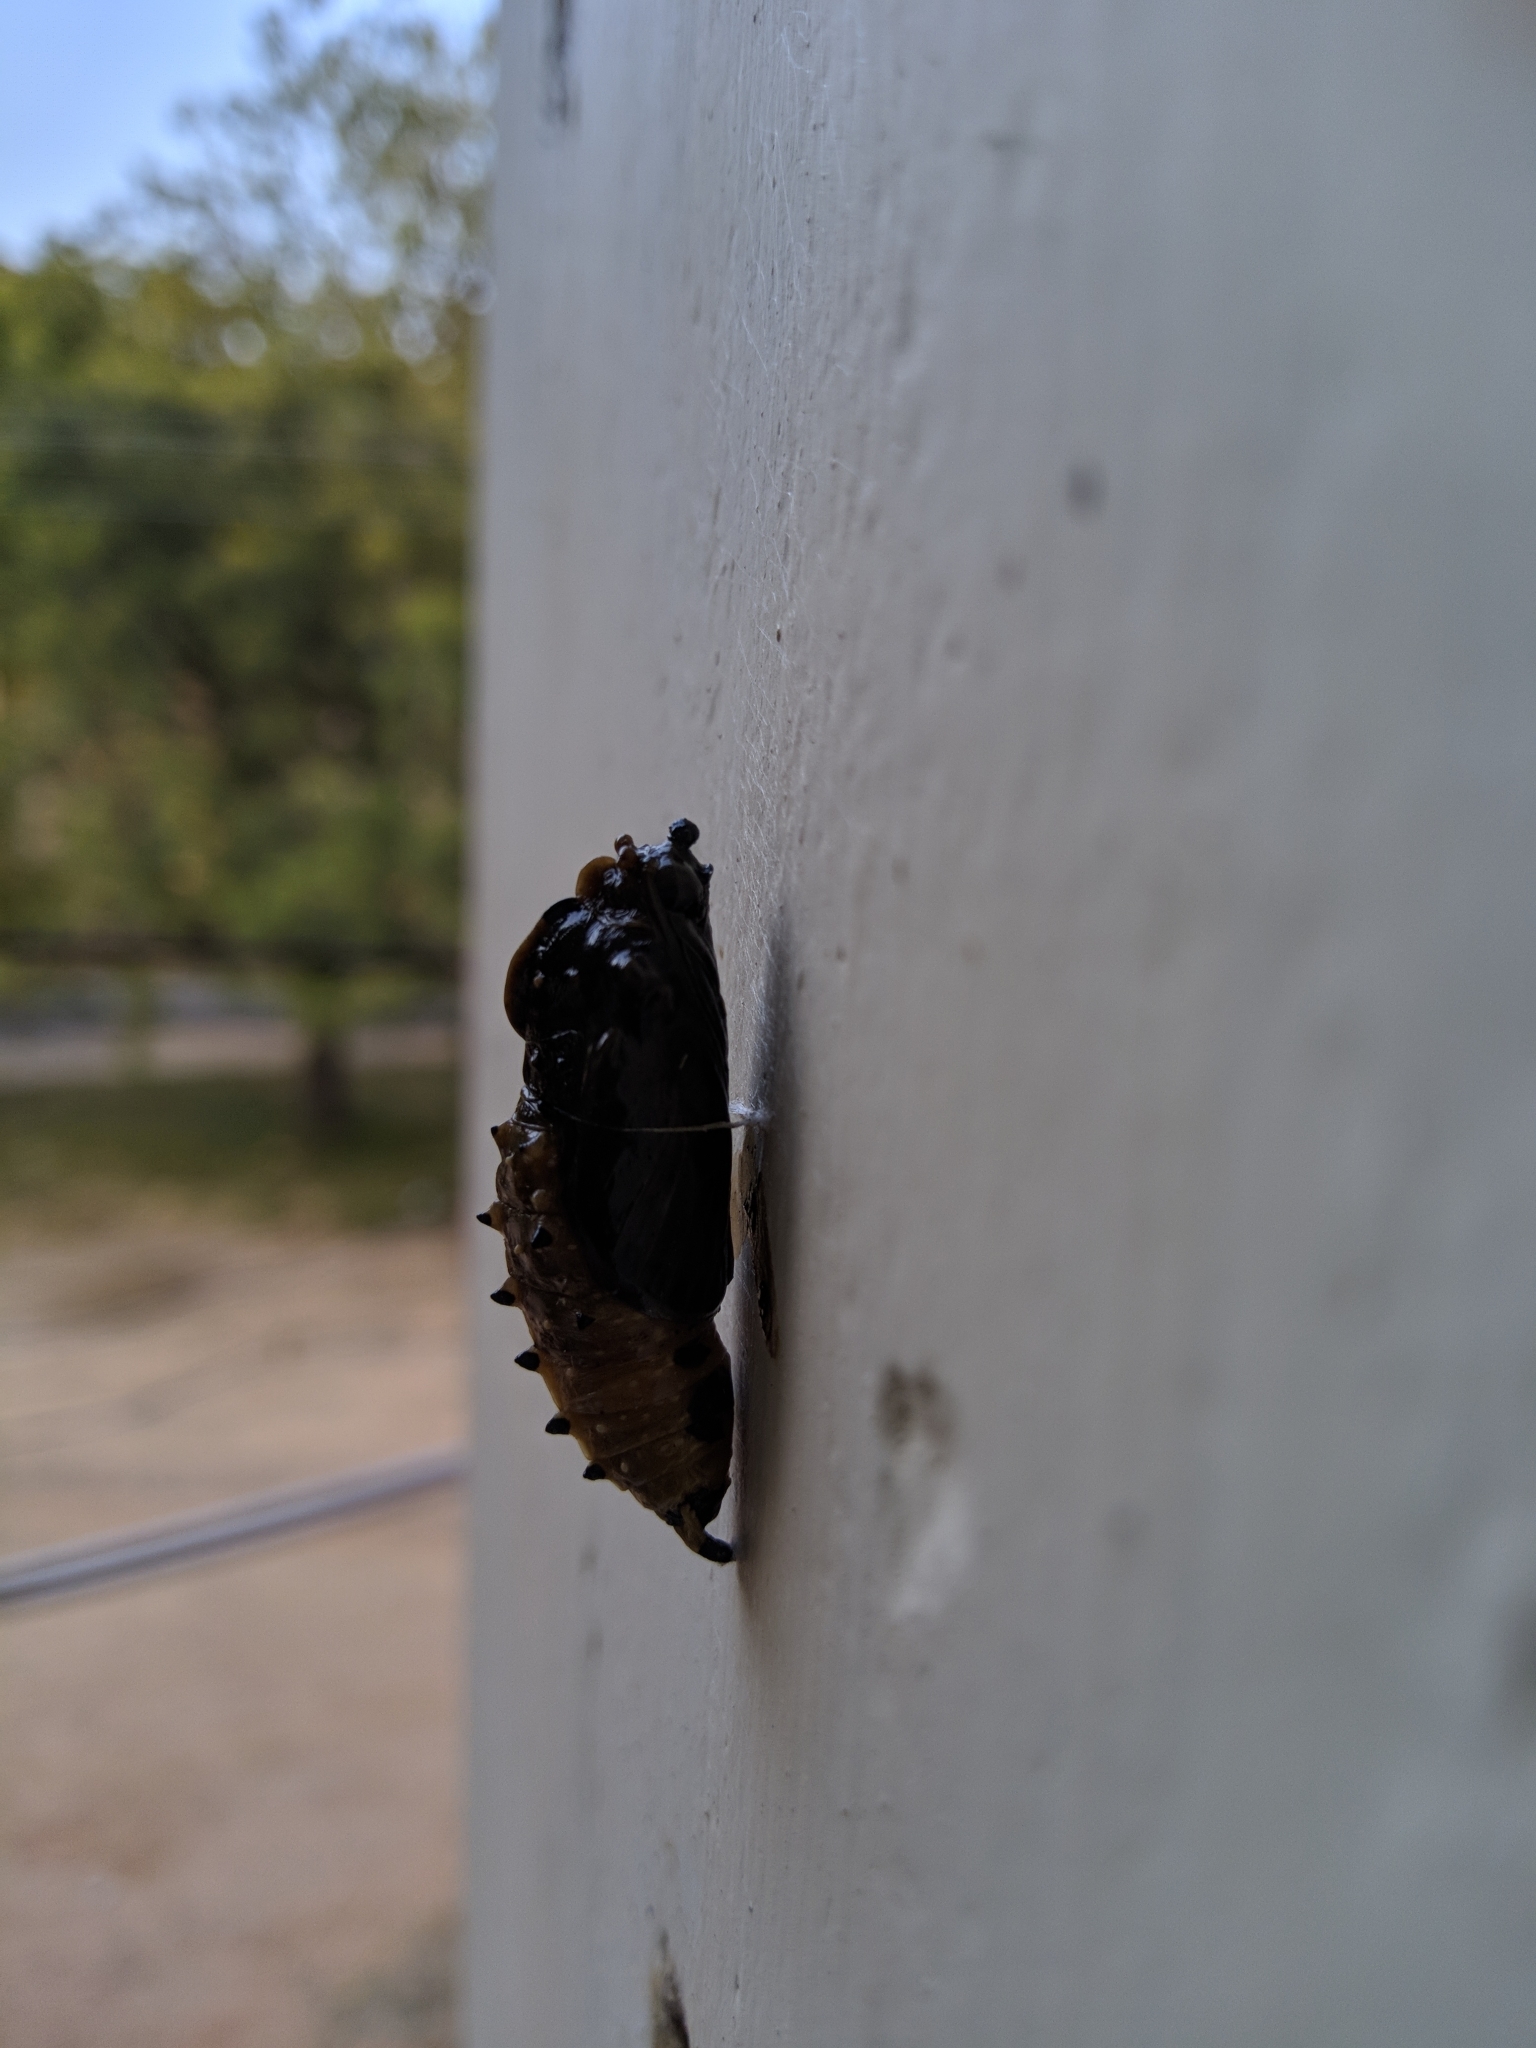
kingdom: Animalia
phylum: Arthropoda
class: Insecta
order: Lepidoptera
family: Pieridae
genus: Delias
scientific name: Delias eucharis
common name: Common jezebel
